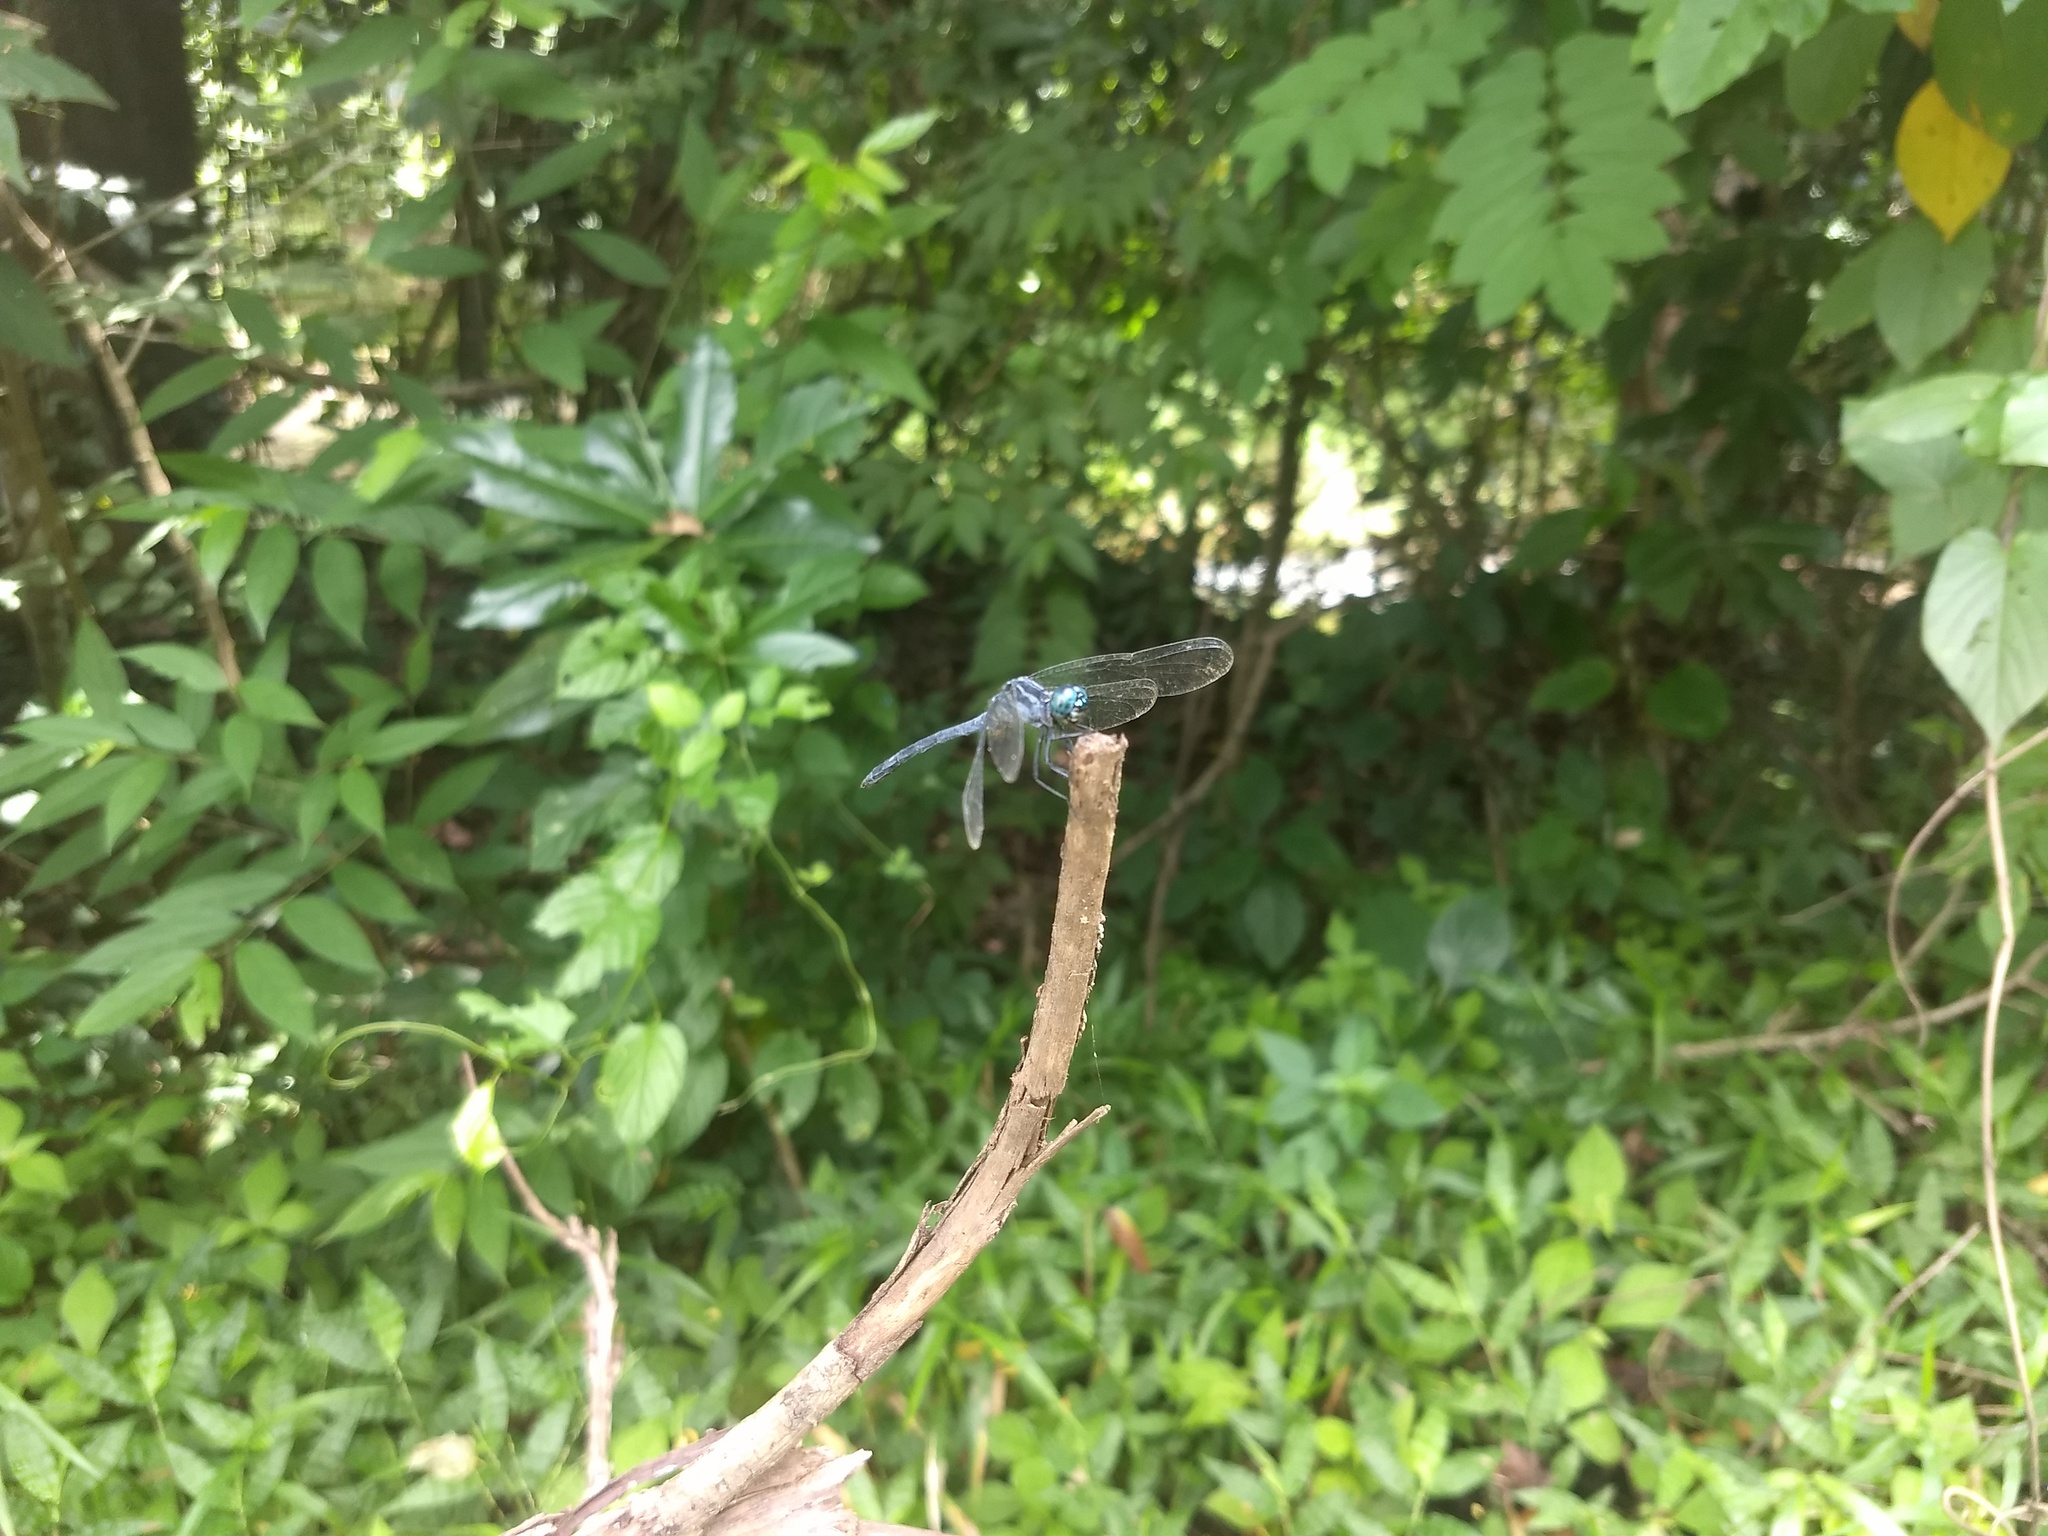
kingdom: Animalia
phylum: Arthropoda
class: Insecta
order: Odonata
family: Libellulidae
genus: Hylaeothemis
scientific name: Hylaeothemis apicalis
